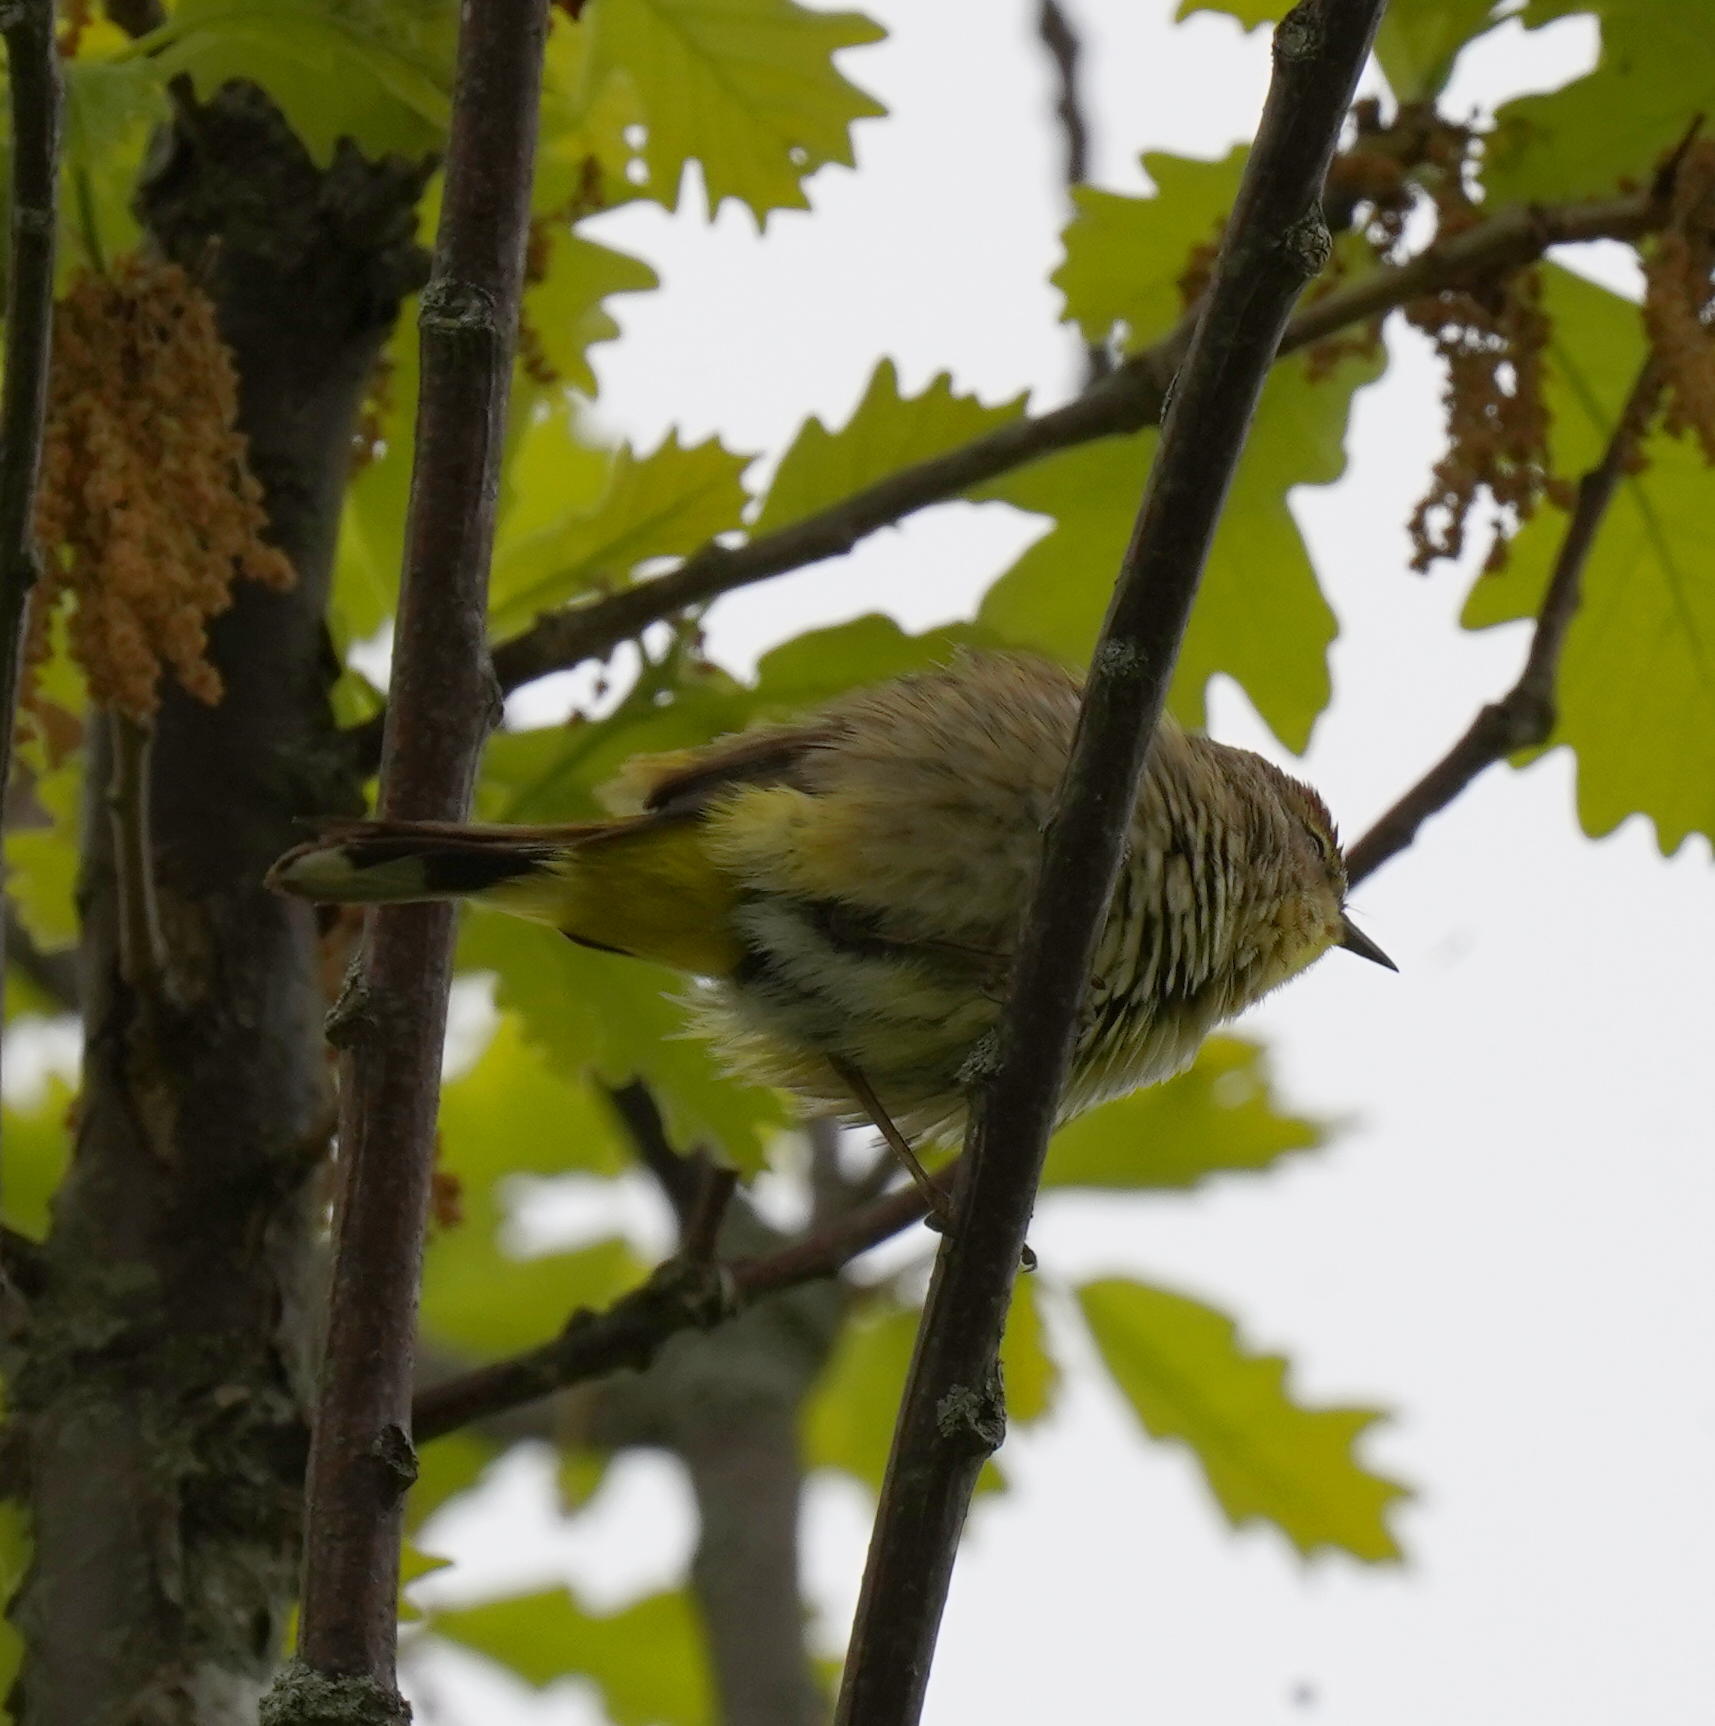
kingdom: Animalia
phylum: Chordata
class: Aves
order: Passeriformes
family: Parulidae
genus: Setophaga
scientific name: Setophaga palmarum
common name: Palm warbler
